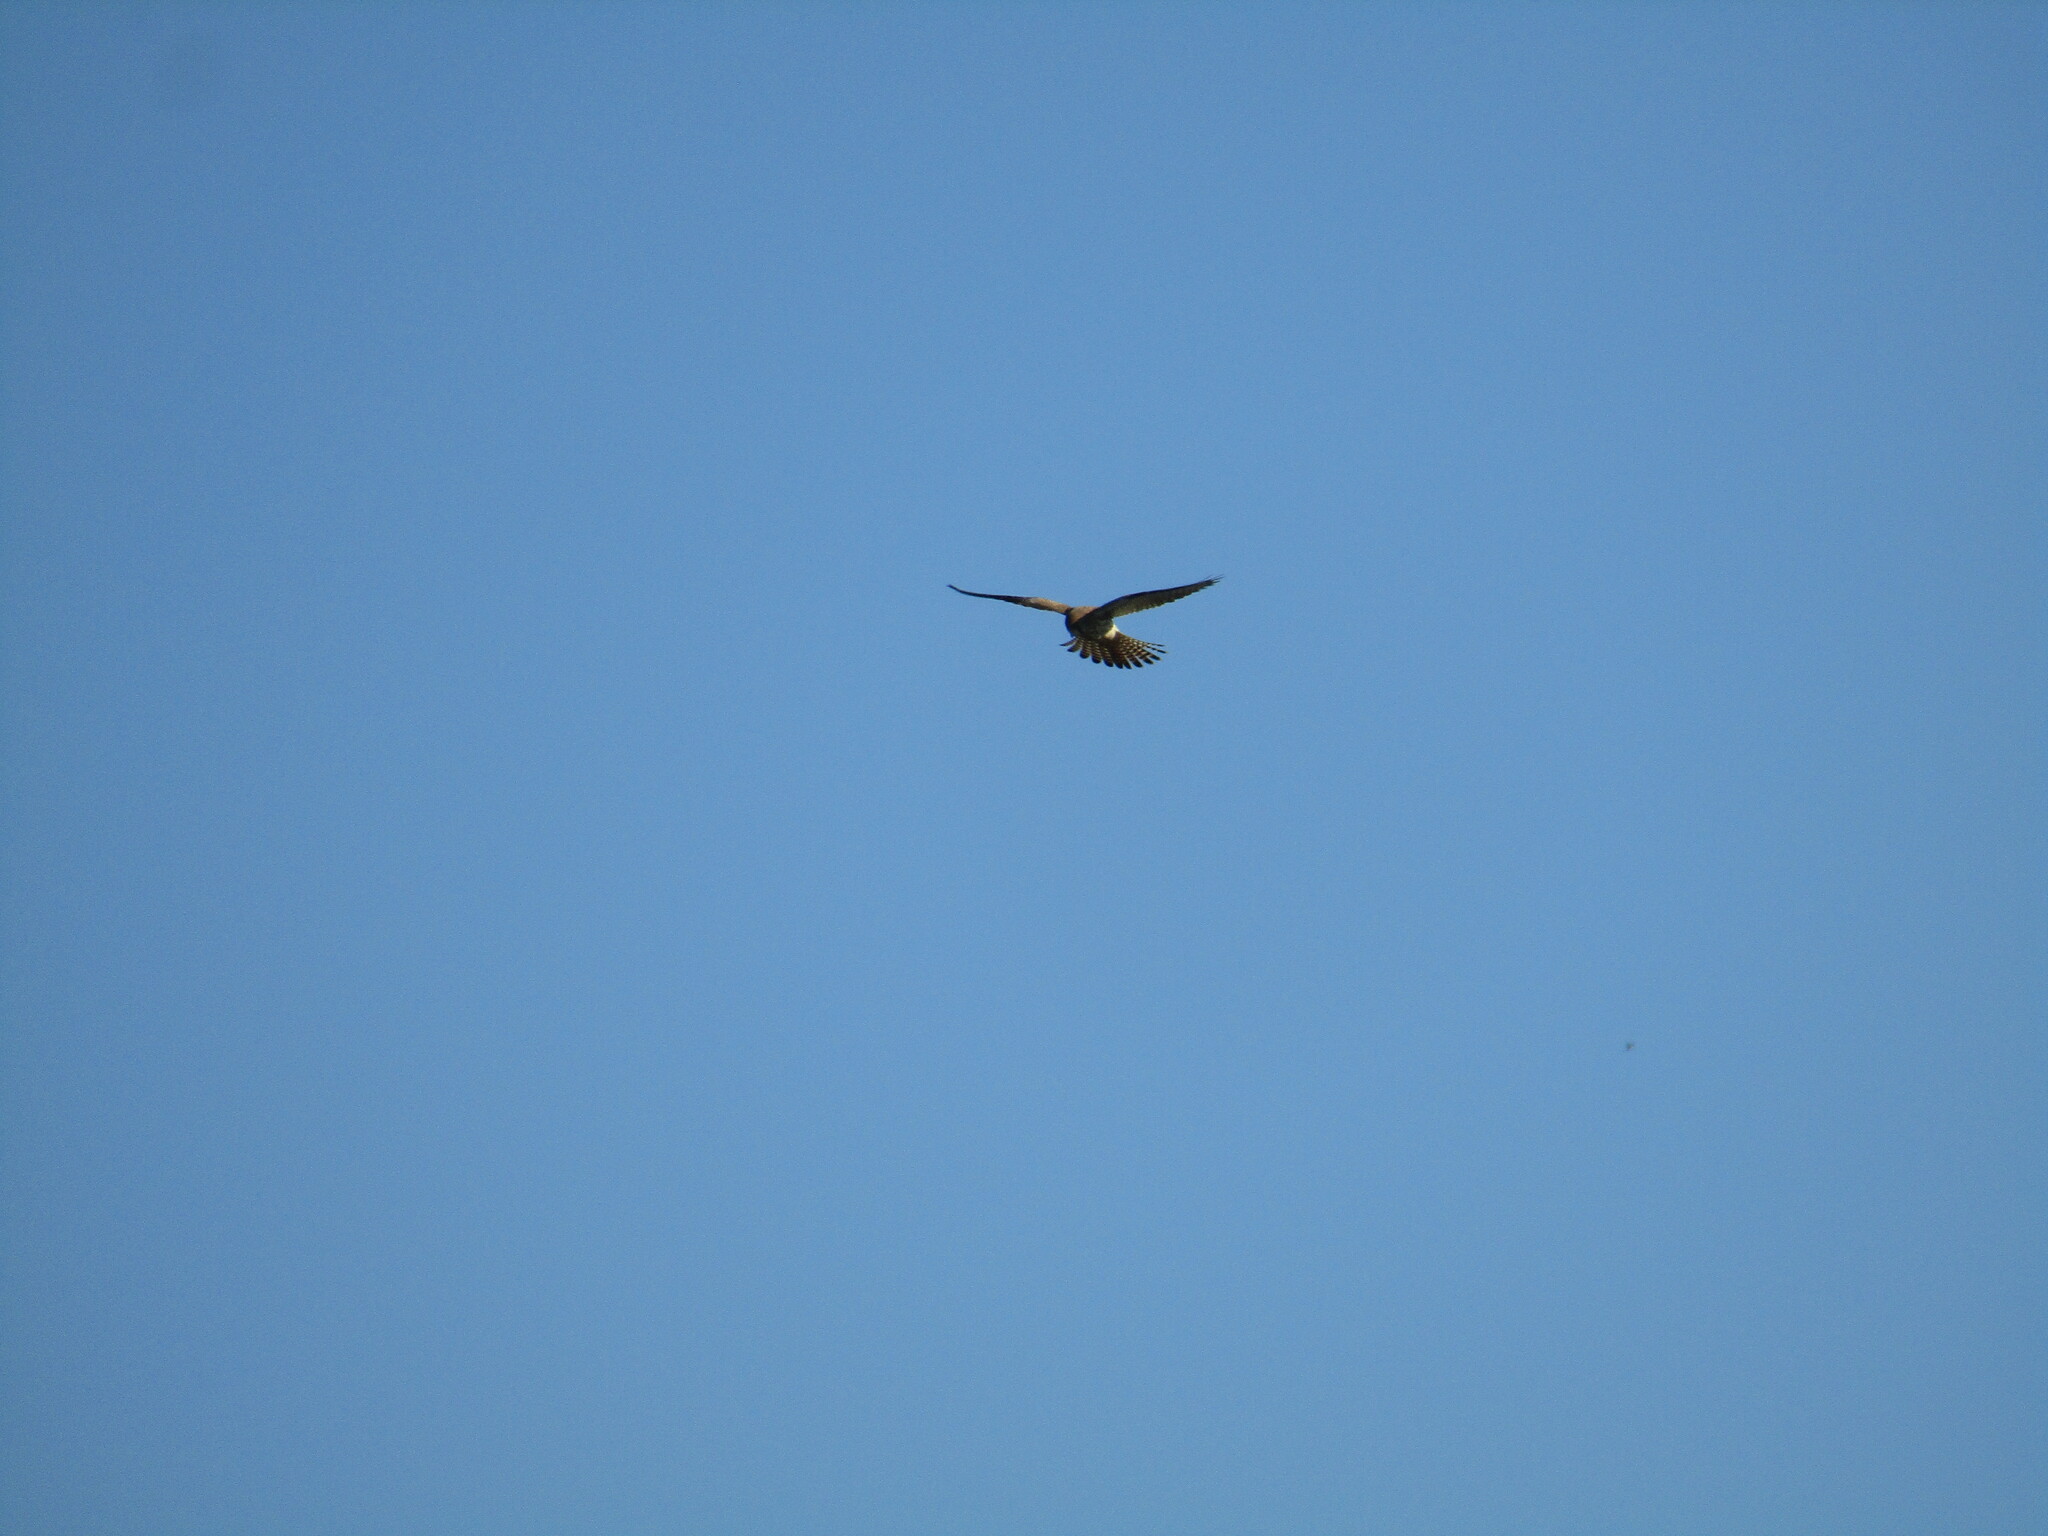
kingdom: Animalia
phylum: Chordata
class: Aves
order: Falconiformes
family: Falconidae
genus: Falco
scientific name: Falco tinnunculus
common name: Common kestrel
